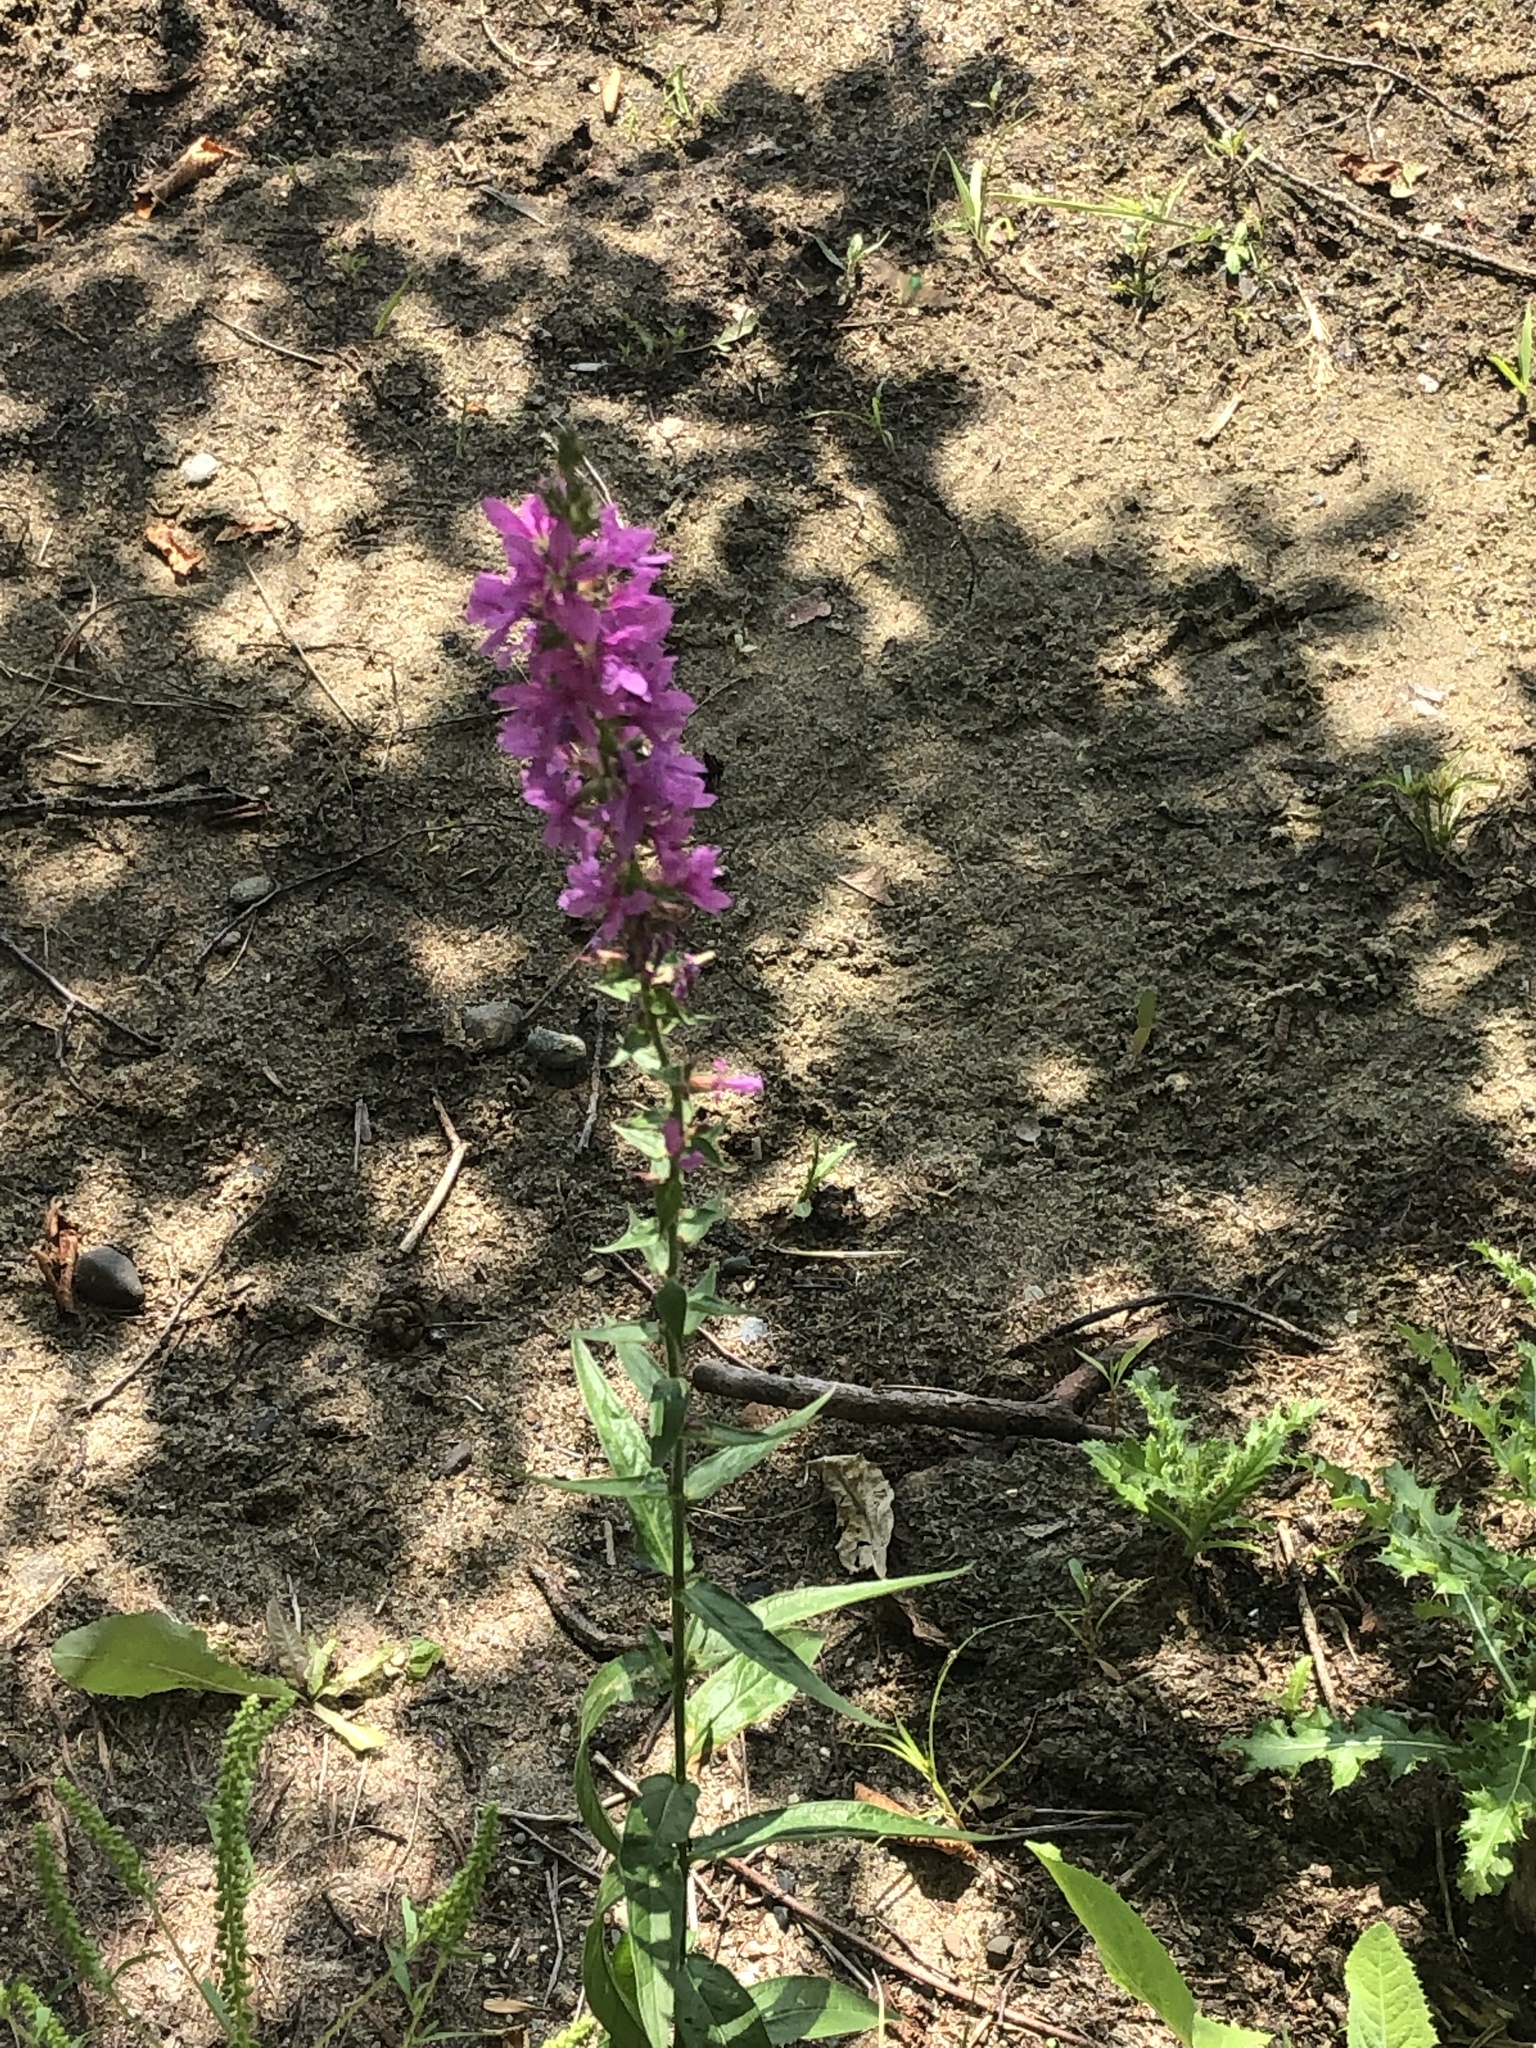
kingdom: Plantae
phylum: Tracheophyta
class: Magnoliopsida
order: Myrtales
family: Lythraceae
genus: Lythrum
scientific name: Lythrum salicaria
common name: Purple loosestrife
